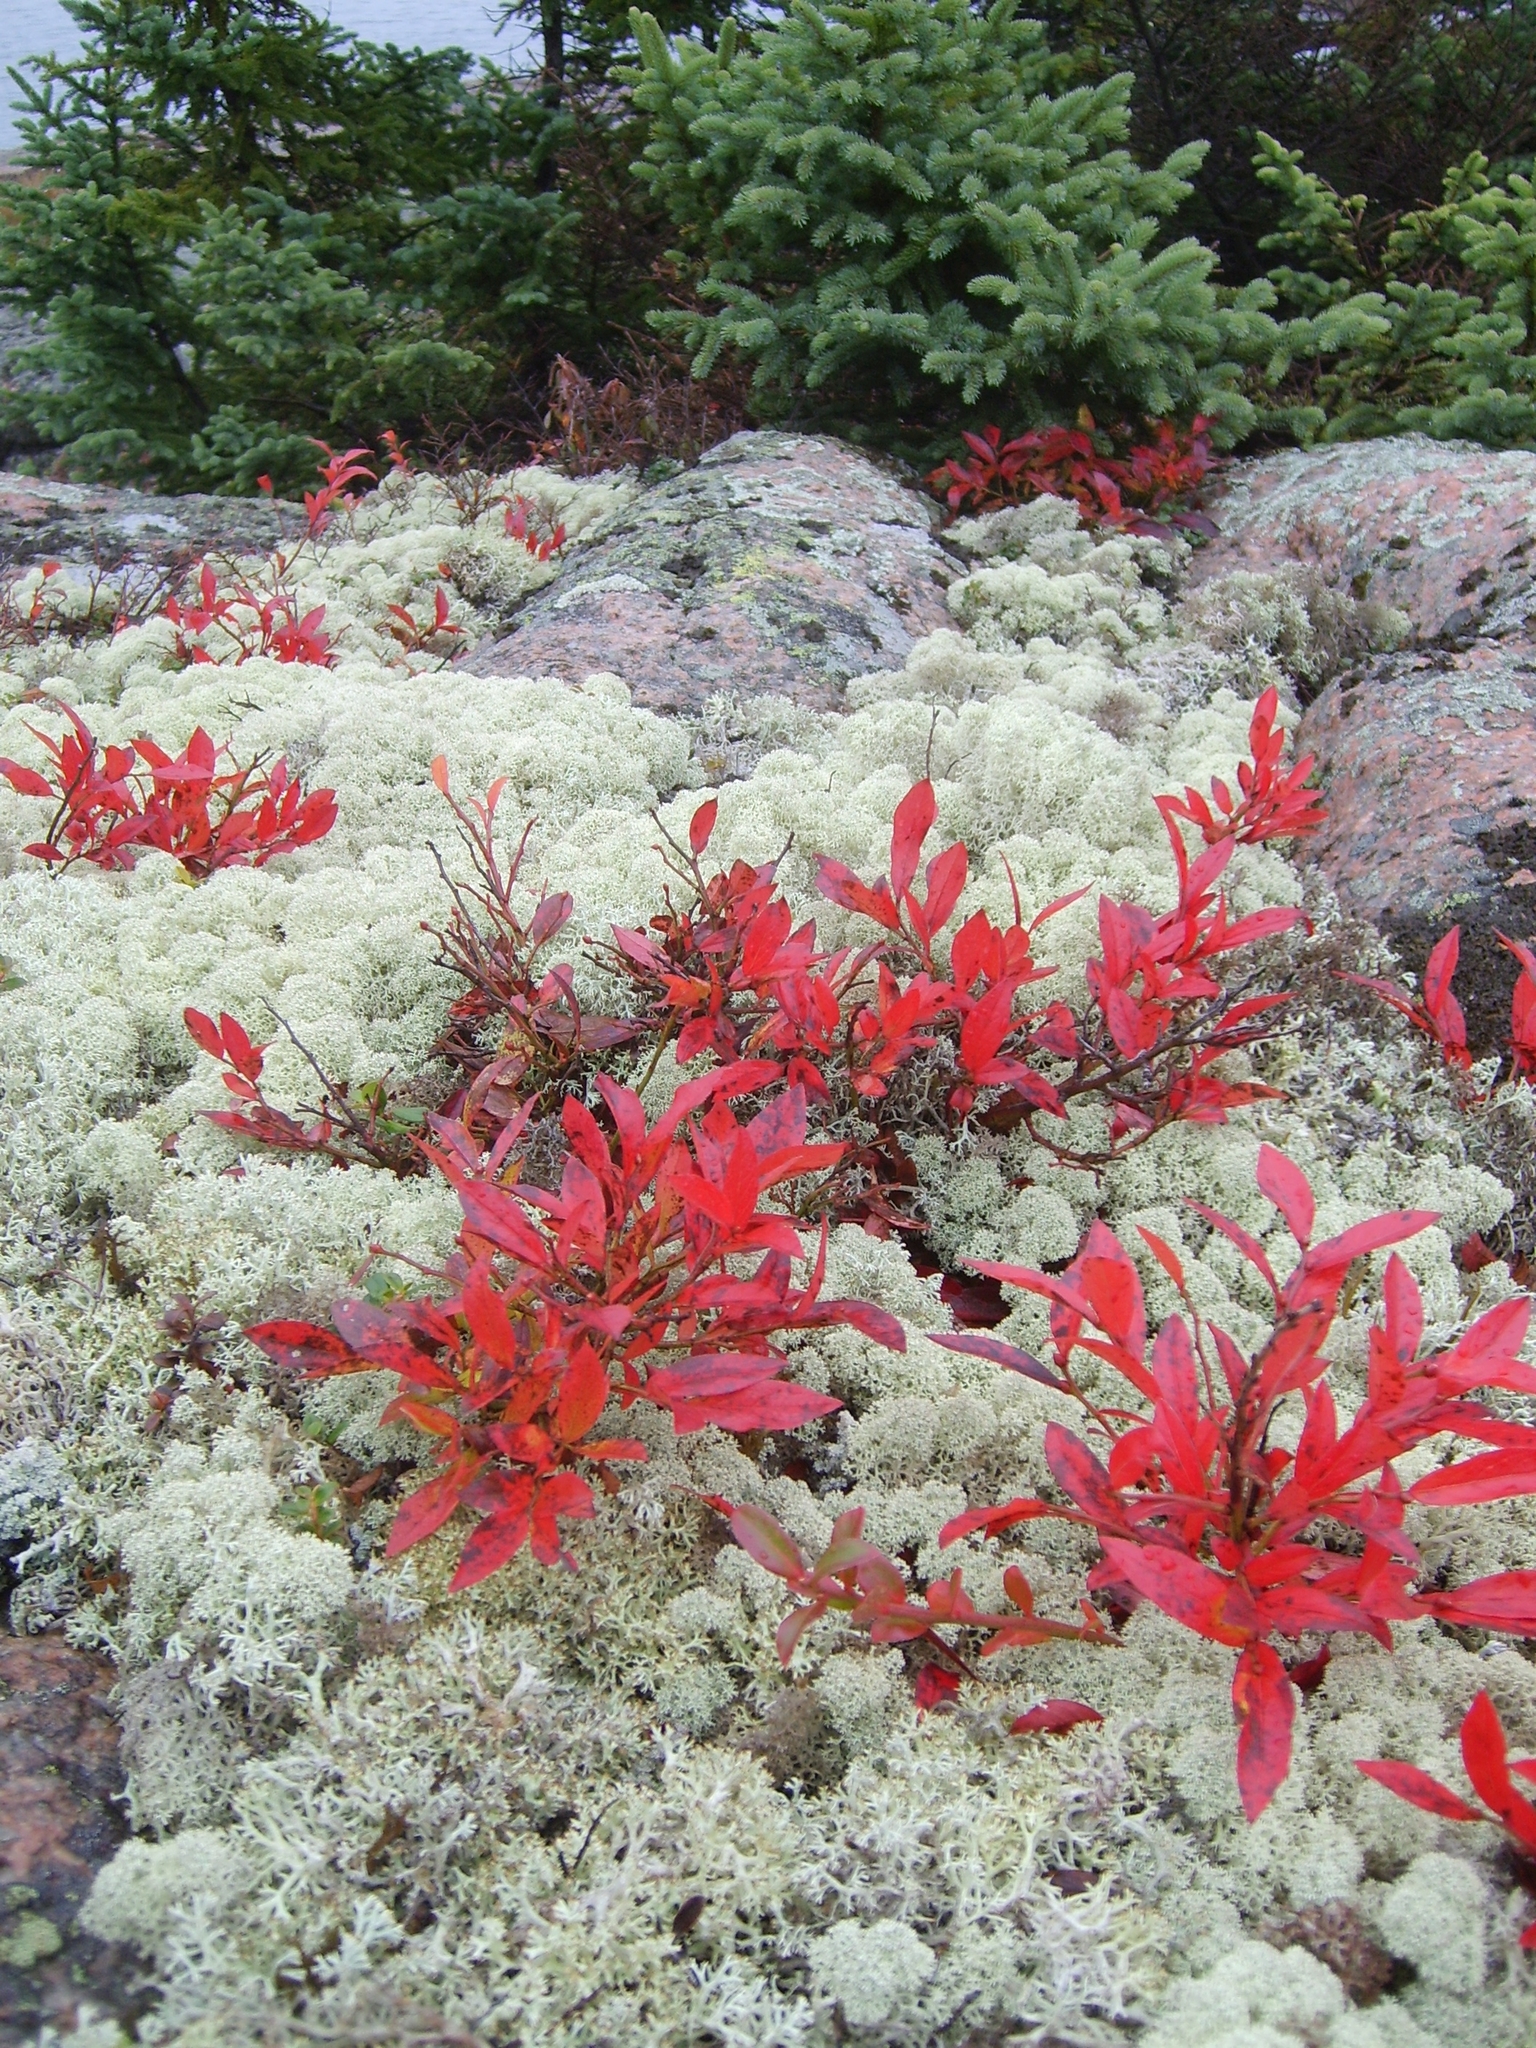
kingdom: Fungi
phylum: Ascomycota
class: Lecanoromycetes
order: Lecanorales
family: Cladoniaceae
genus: Cladonia
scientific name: Cladonia rangiferina
